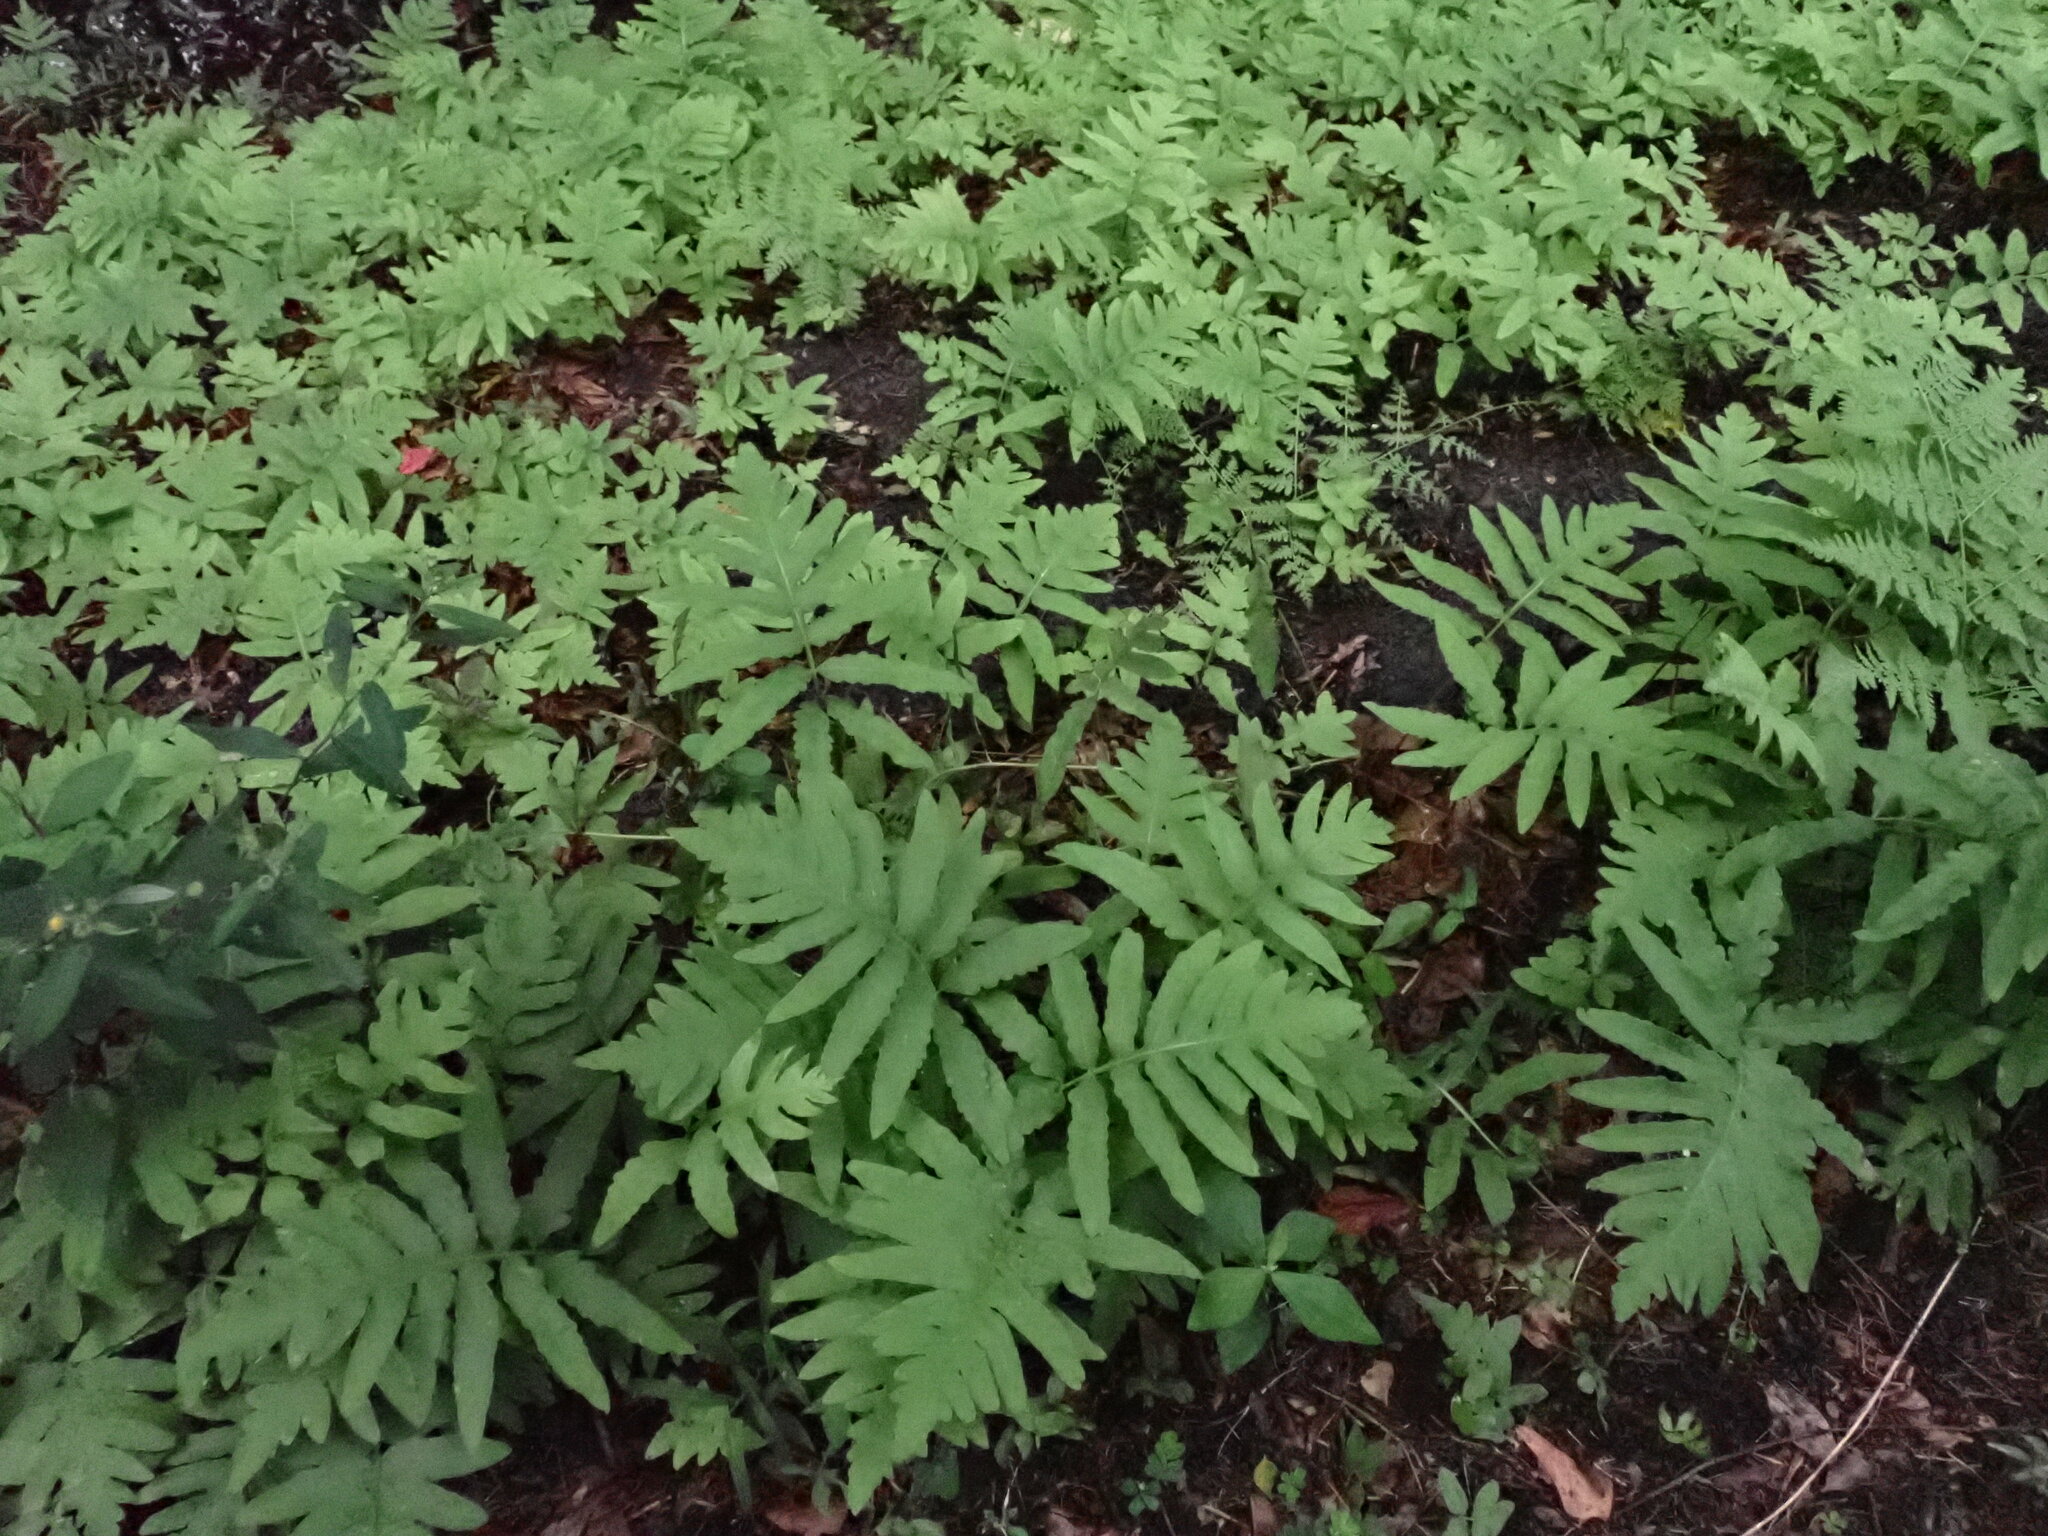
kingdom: Plantae
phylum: Tracheophyta
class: Polypodiopsida
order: Polypodiales
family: Onocleaceae
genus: Onoclea
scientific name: Onoclea sensibilis
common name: Sensitive fern
